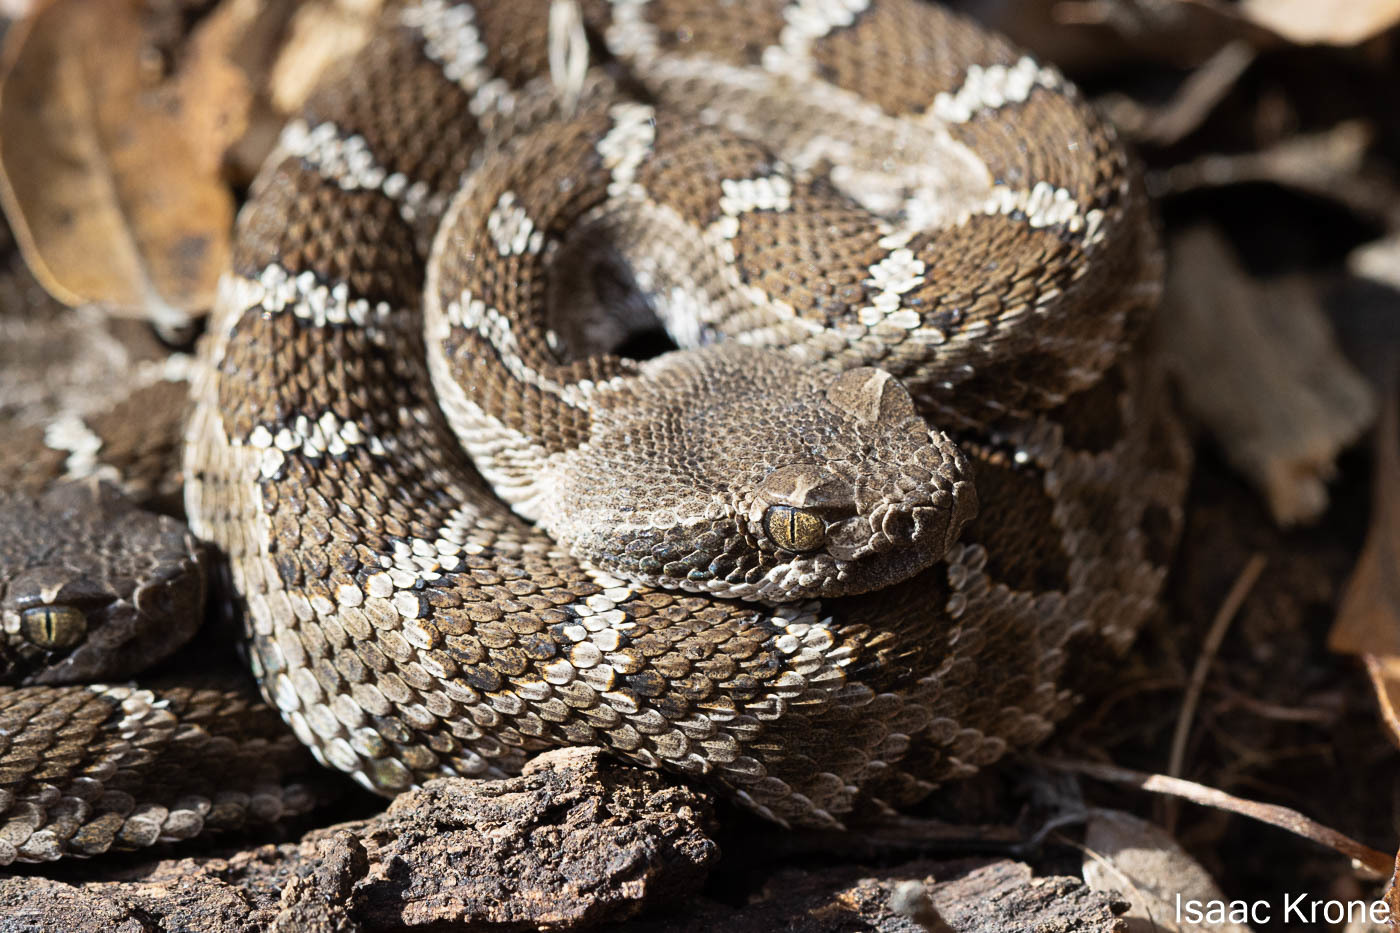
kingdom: Animalia
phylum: Chordata
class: Squamata
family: Viperidae
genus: Crotalus
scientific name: Crotalus oreganus
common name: Abyssus
